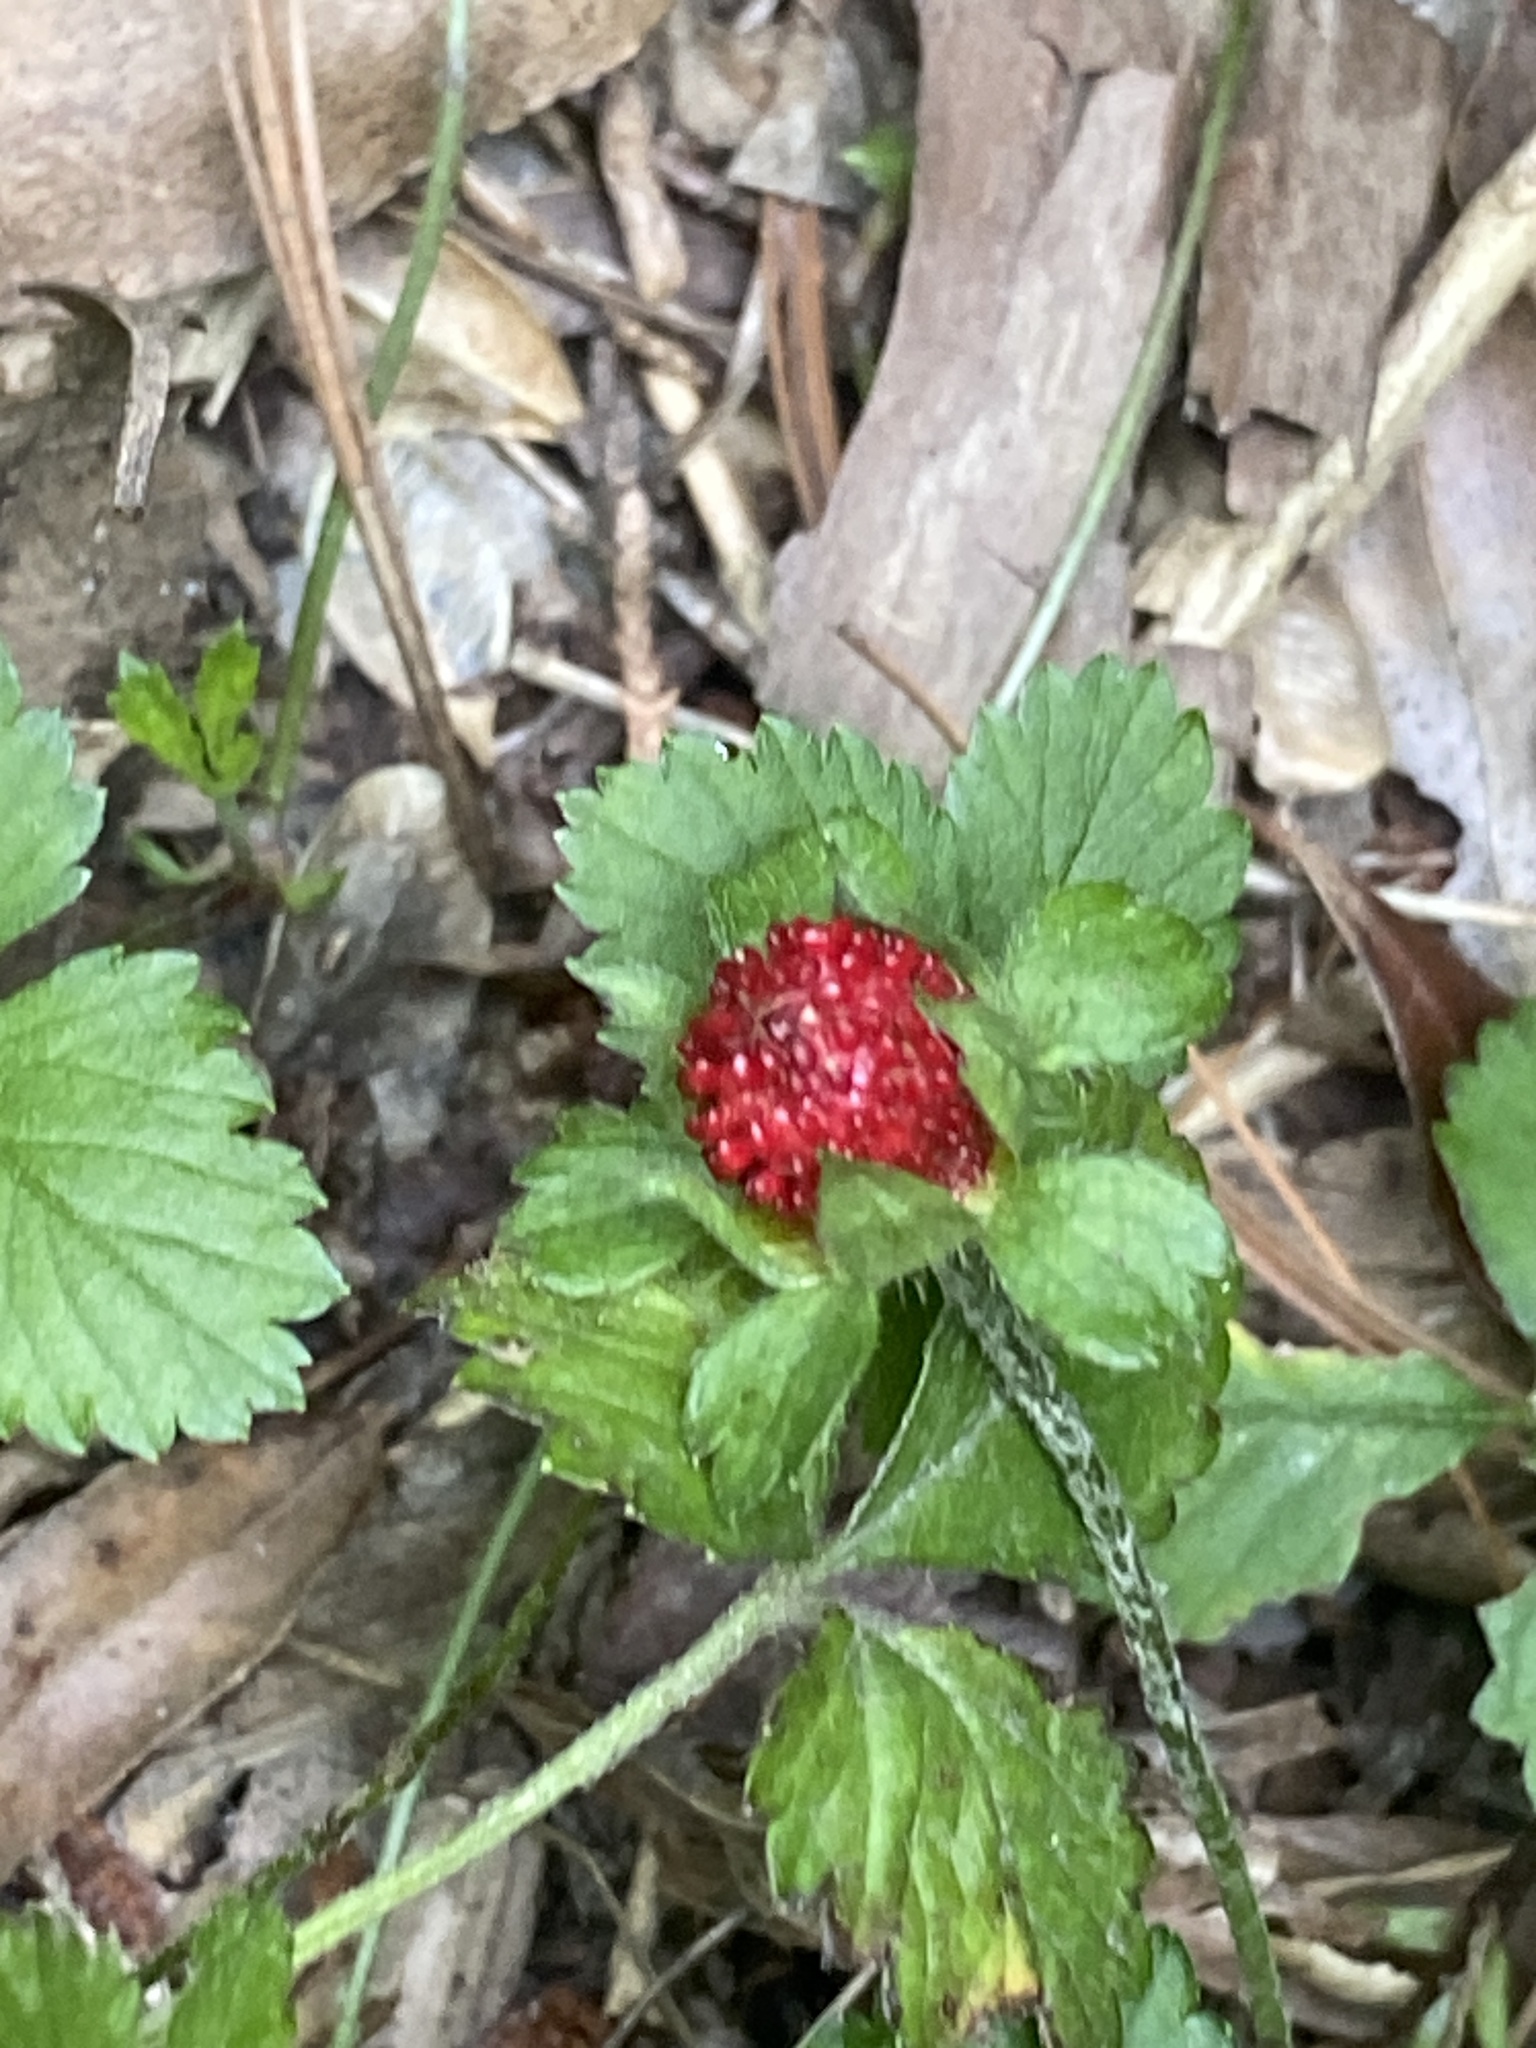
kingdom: Plantae
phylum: Tracheophyta
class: Magnoliopsida
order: Rosales
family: Rosaceae
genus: Potentilla
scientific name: Potentilla indica
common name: Yellow-flowered strawberry
